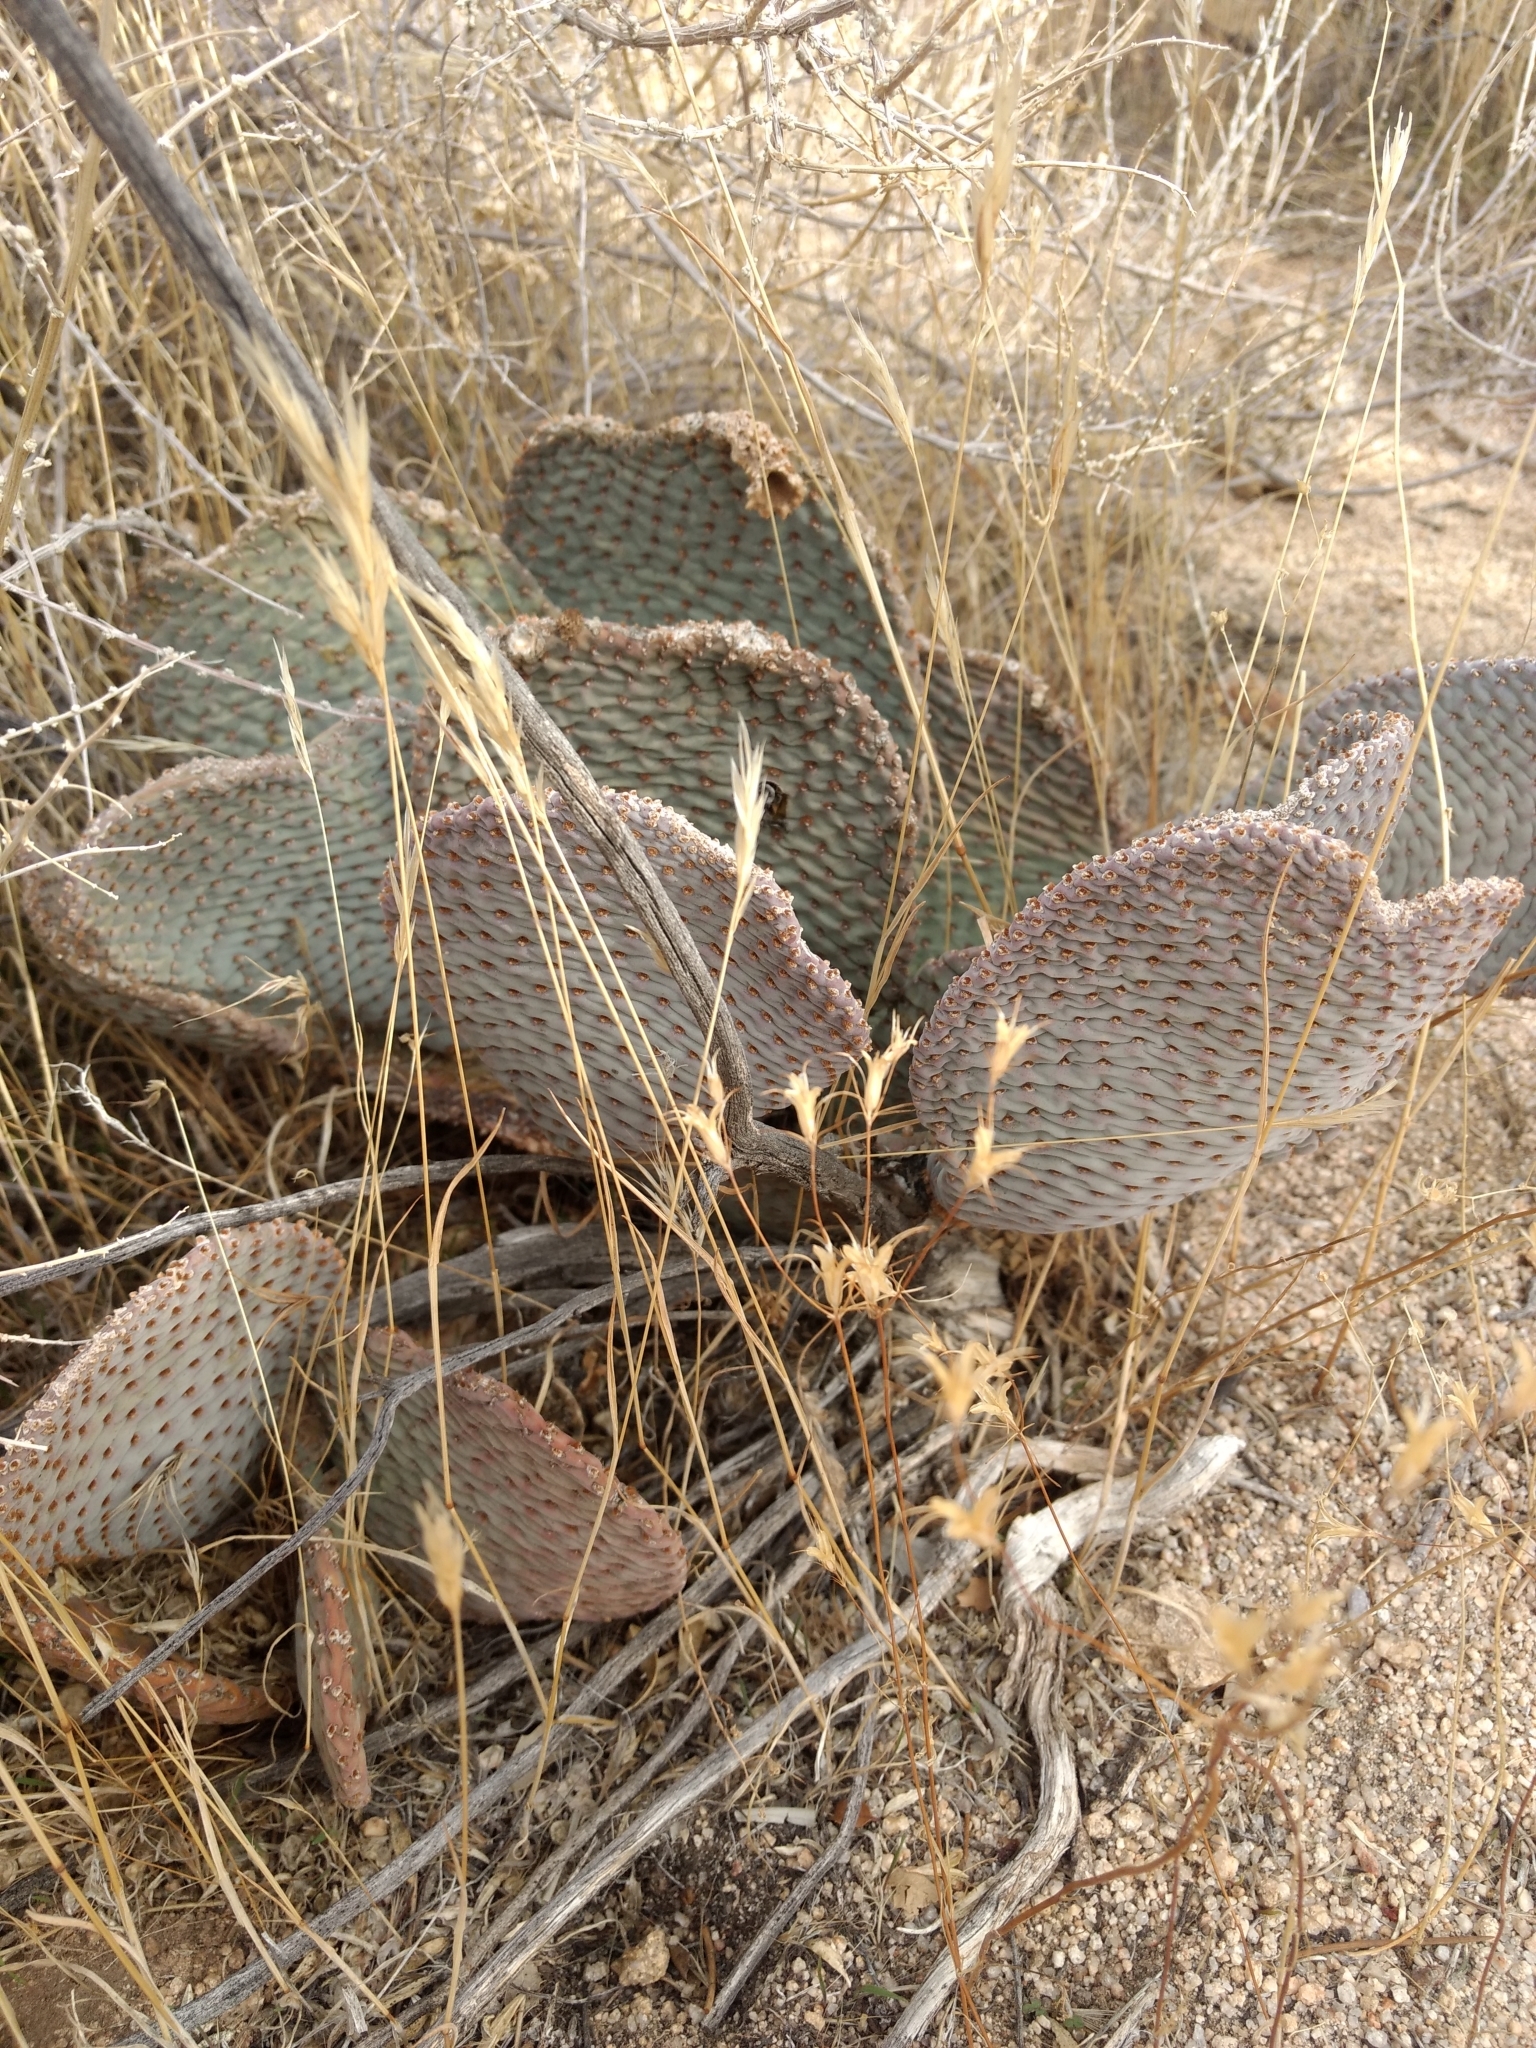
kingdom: Plantae
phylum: Tracheophyta
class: Magnoliopsida
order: Caryophyllales
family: Cactaceae
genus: Opuntia
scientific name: Opuntia basilaris
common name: Beavertail prickly-pear
